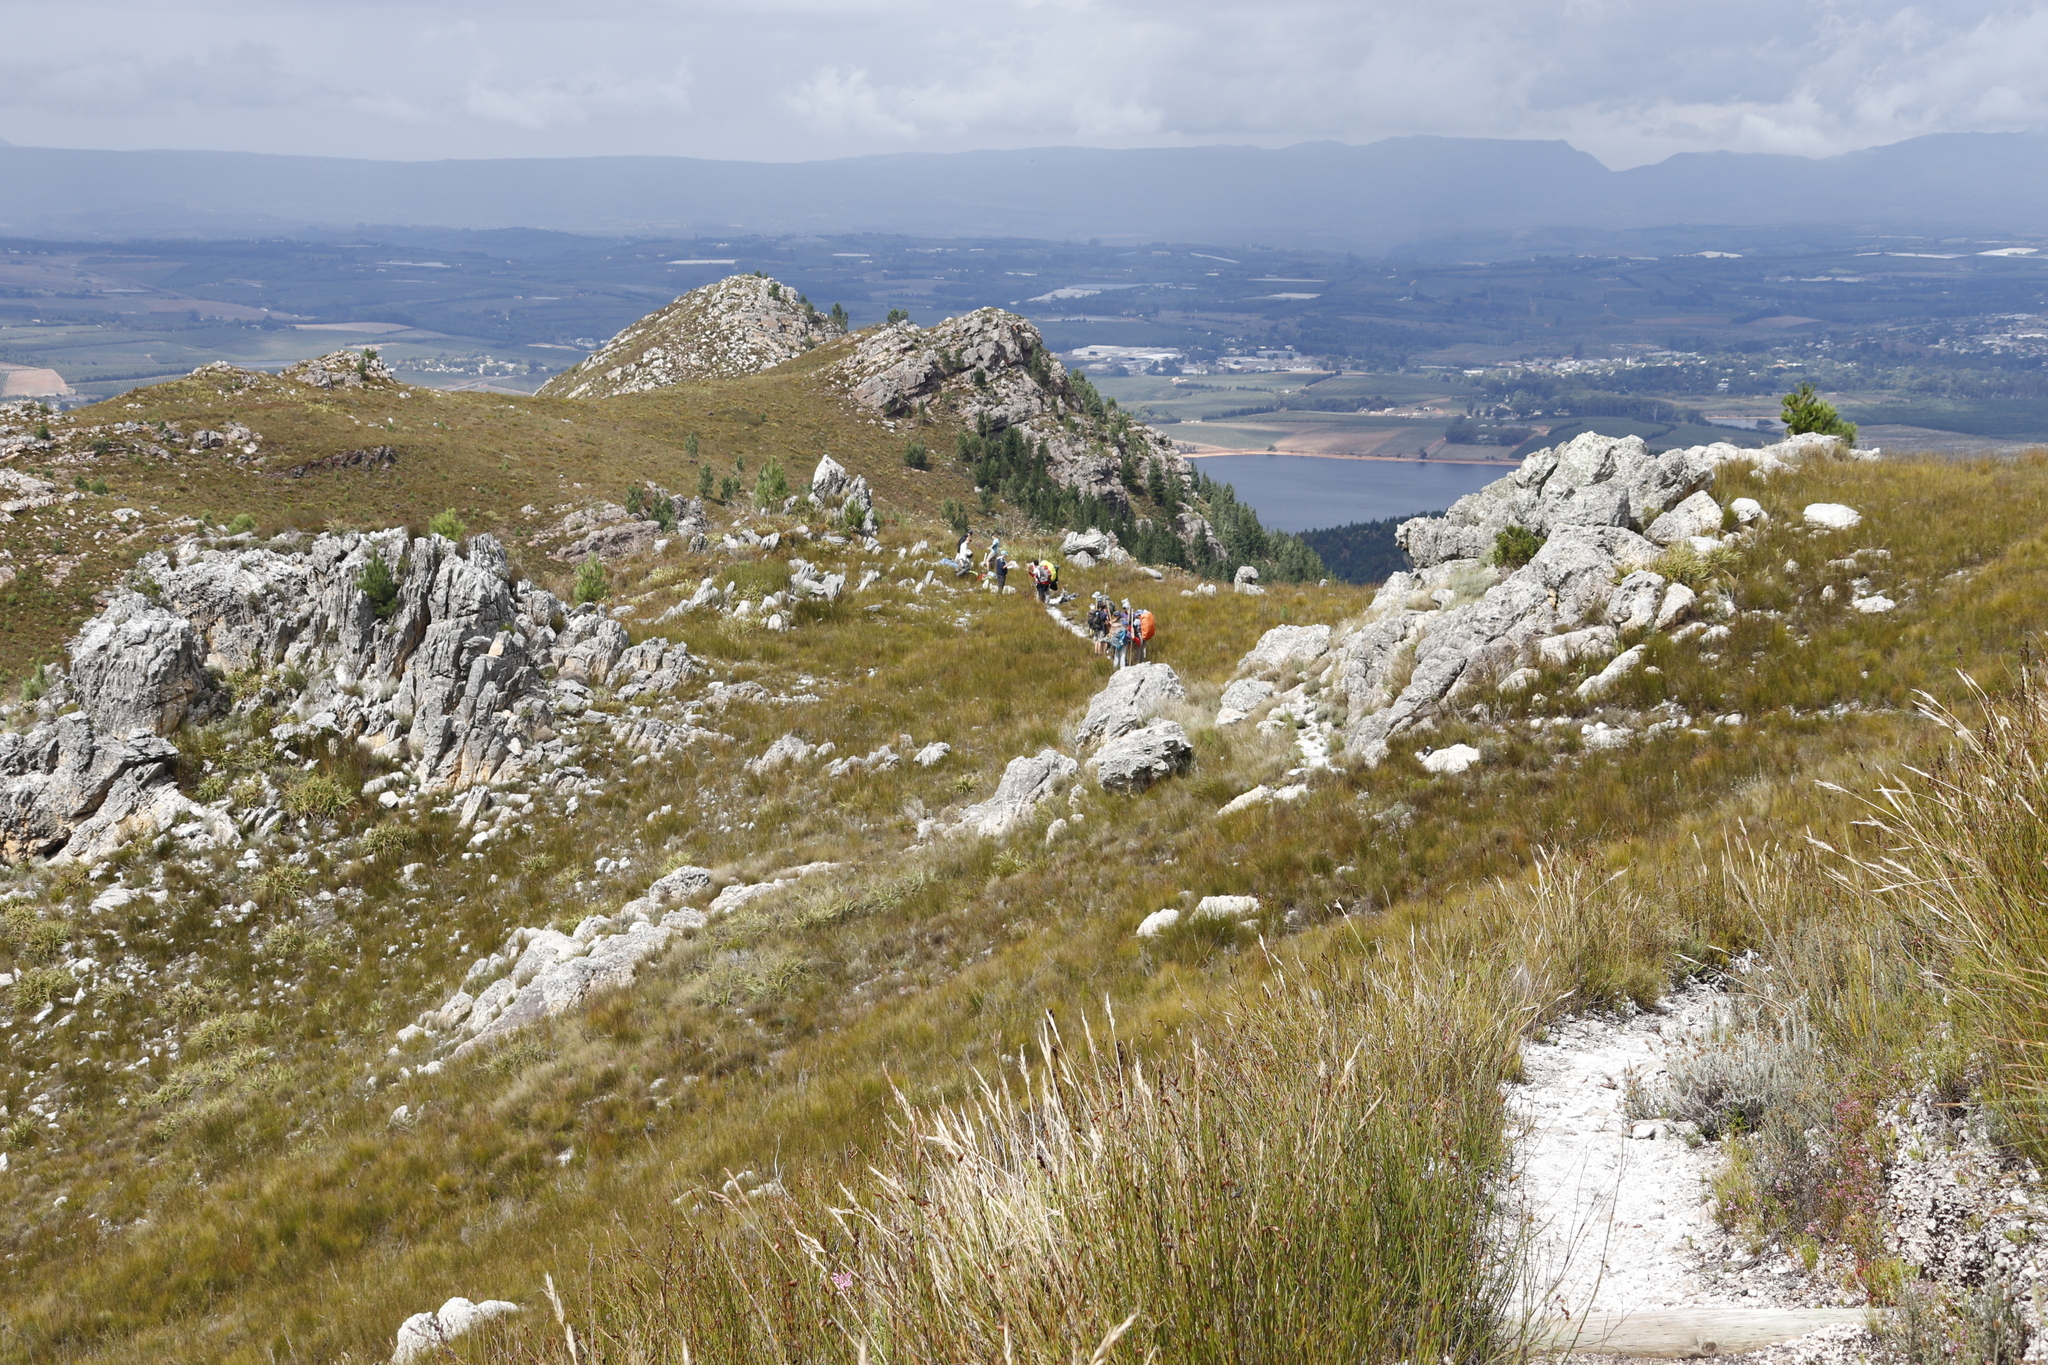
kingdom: Plantae
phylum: Tracheophyta
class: Pinopsida
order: Pinales
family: Pinaceae
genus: Pinus
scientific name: Pinus radiata
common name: Monterey pine
